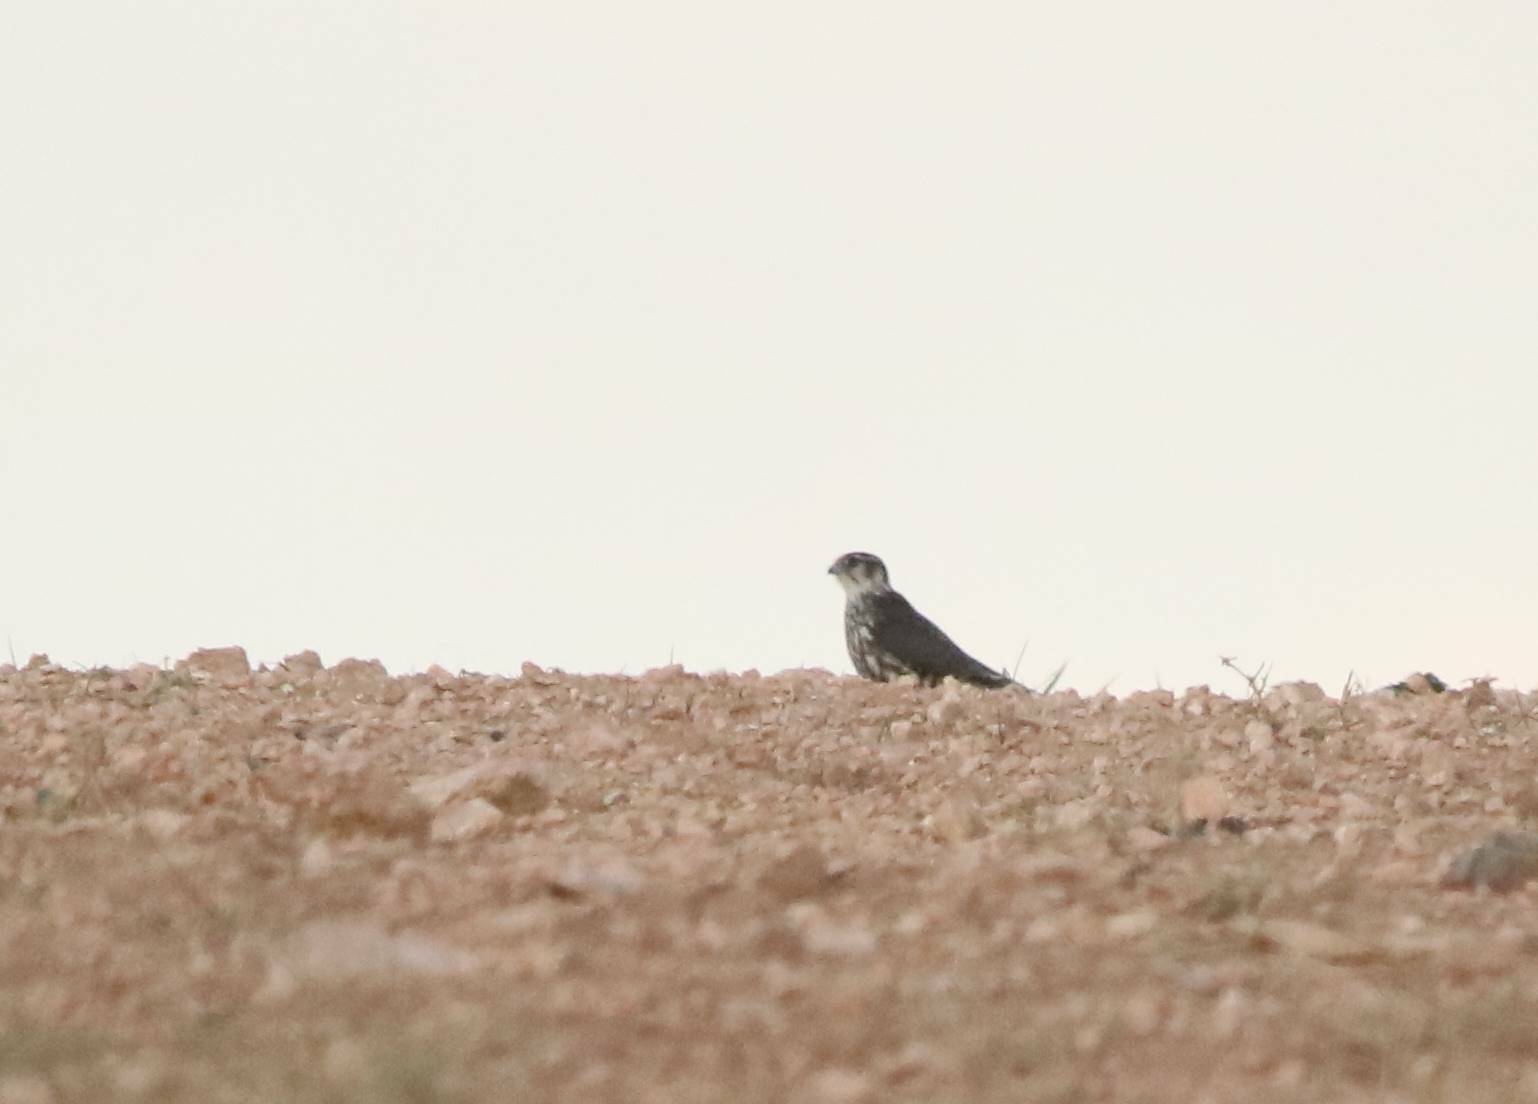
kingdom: Animalia
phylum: Chordata
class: Aves
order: Falconiformes
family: Falconidae
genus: Falco
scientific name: Falco columbarius
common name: Merlin
